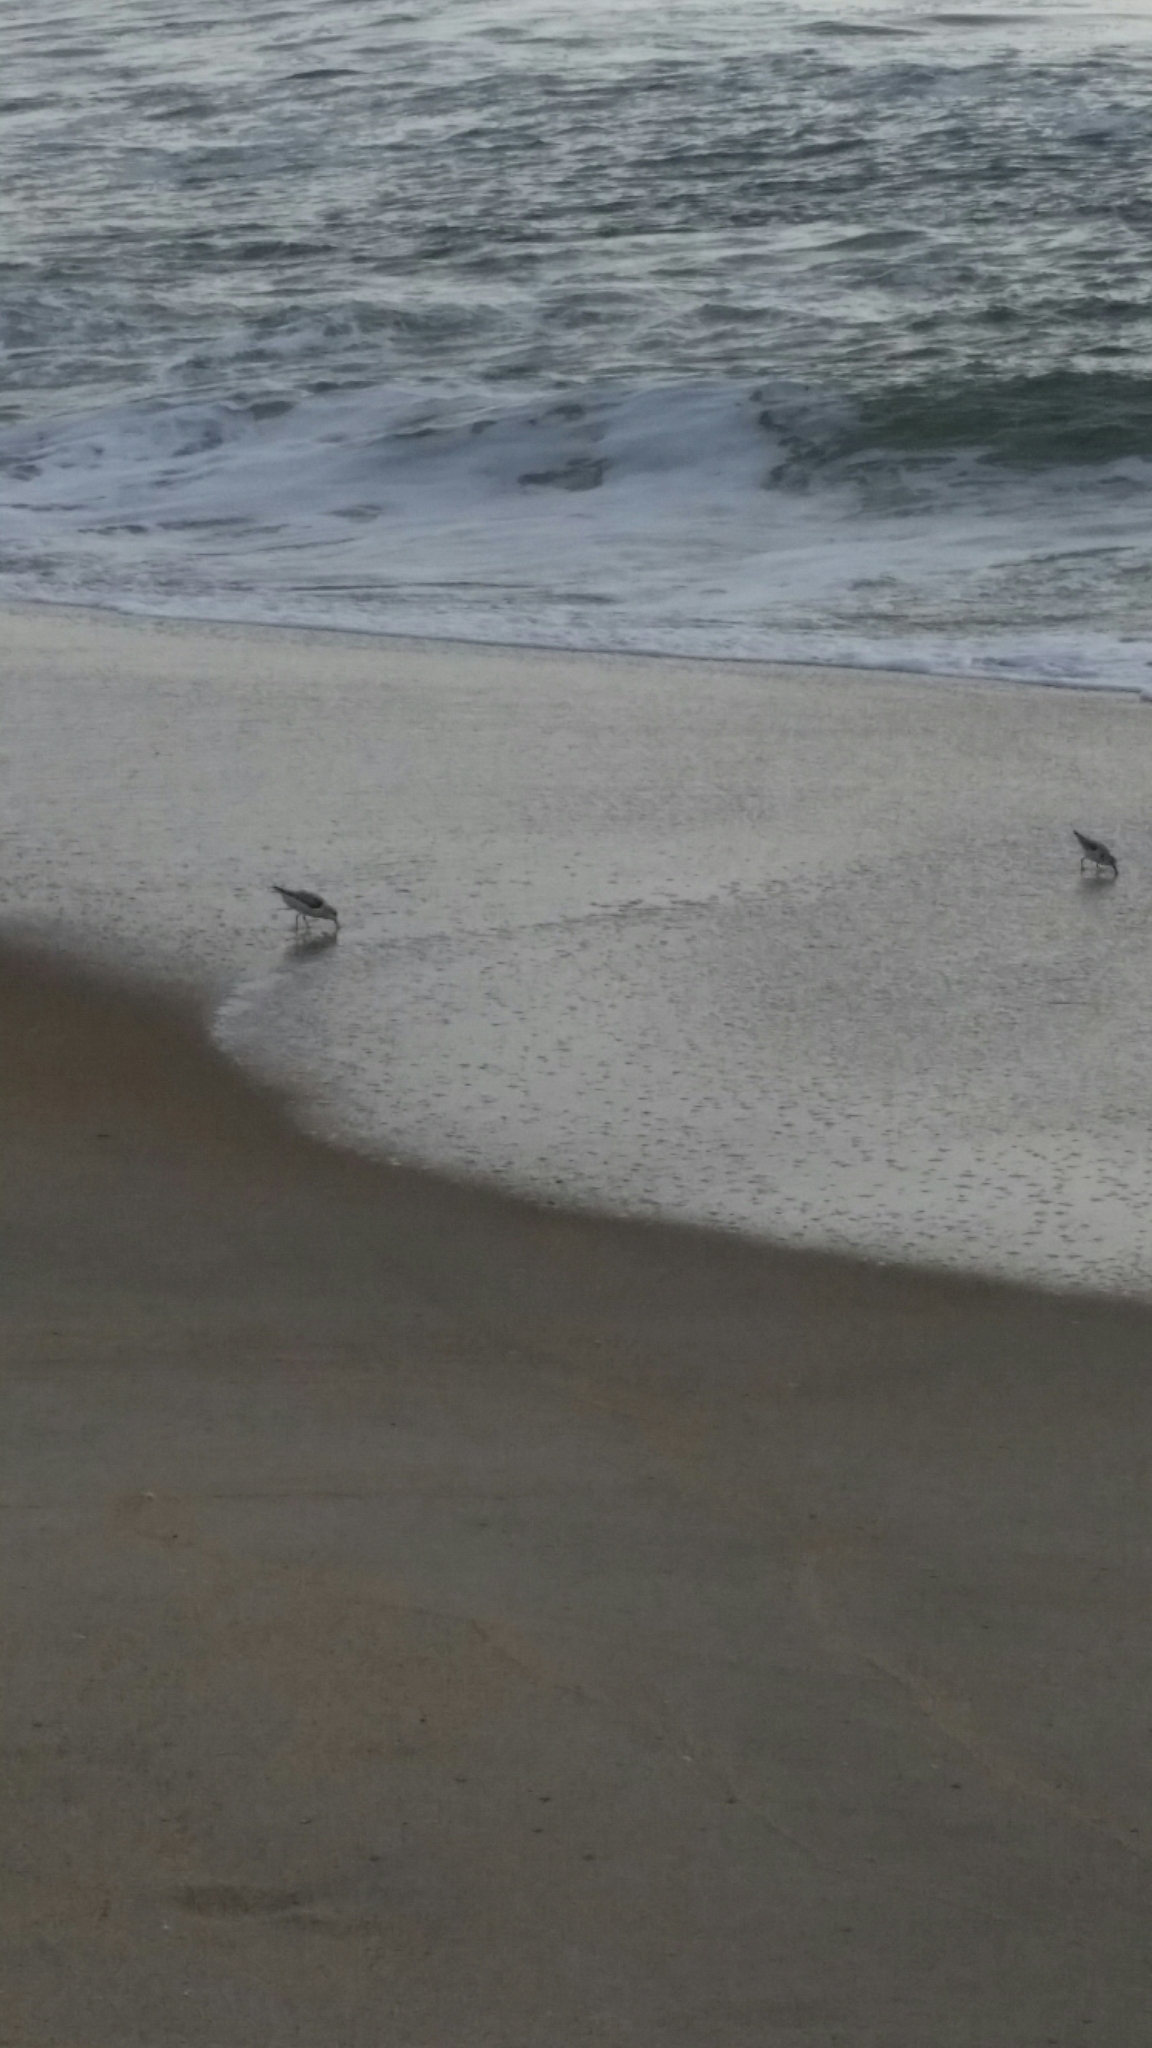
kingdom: Animalia
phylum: Chordata
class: Aves
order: Charadriiformes
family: Scolopacidae
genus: Calidris
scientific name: Calidris alba
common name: Sanderling
